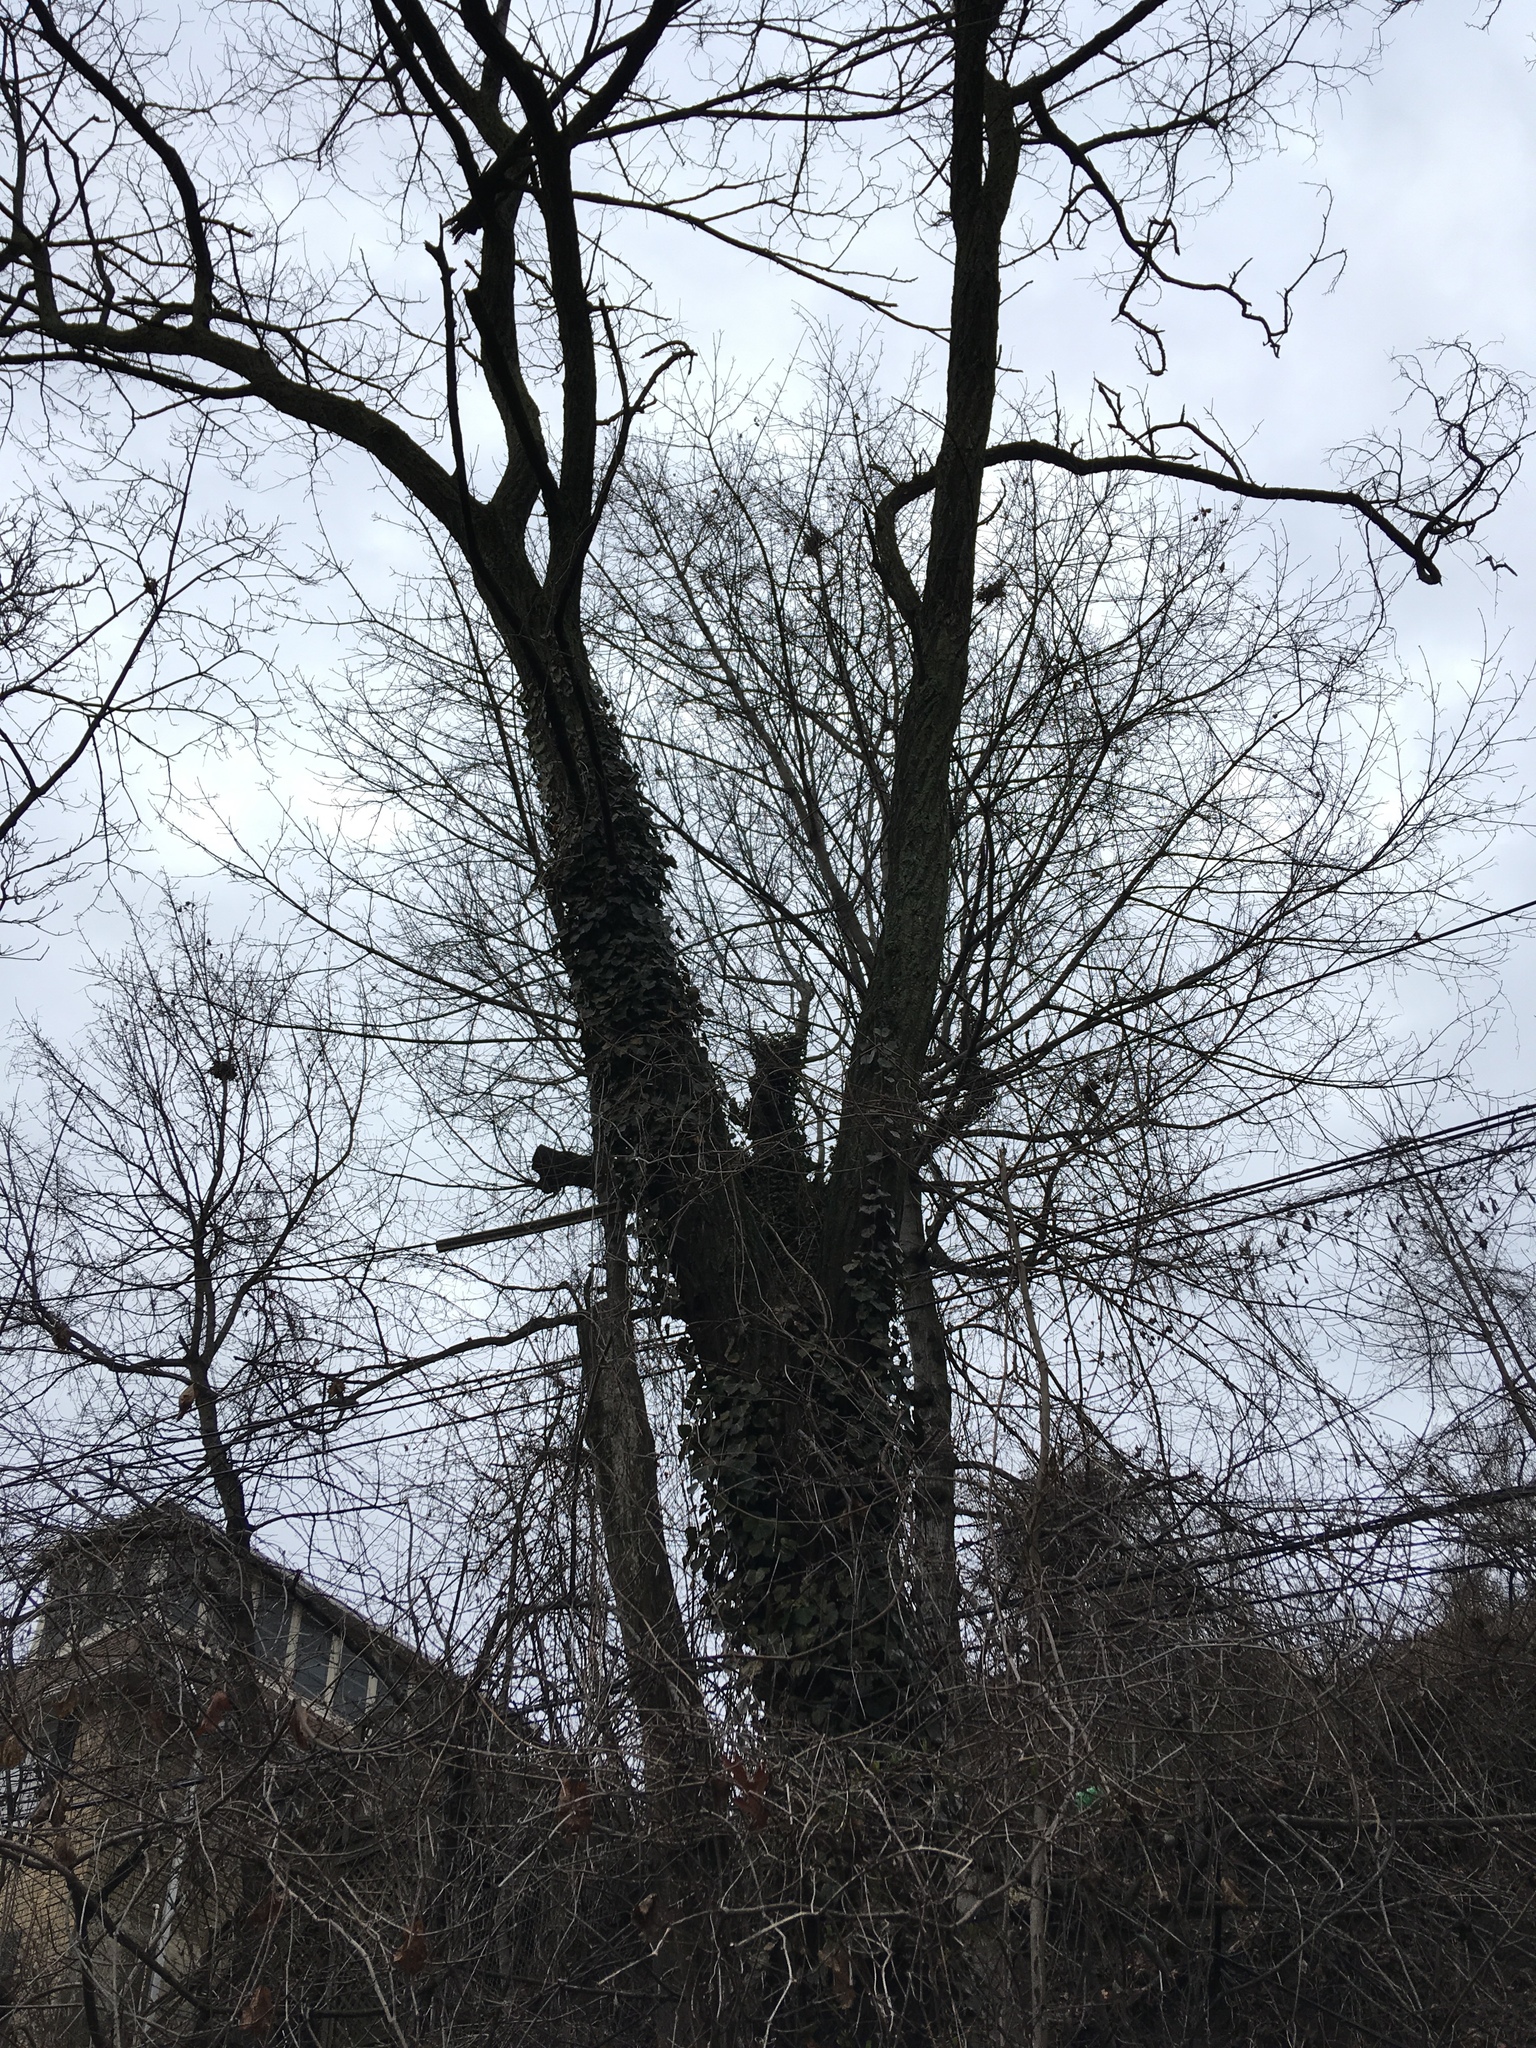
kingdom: Plantae
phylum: Tracheophyta
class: Magnoliopsida
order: Apiales
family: Araliaceae
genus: Hedera
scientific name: Hedera helix
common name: Ivy
